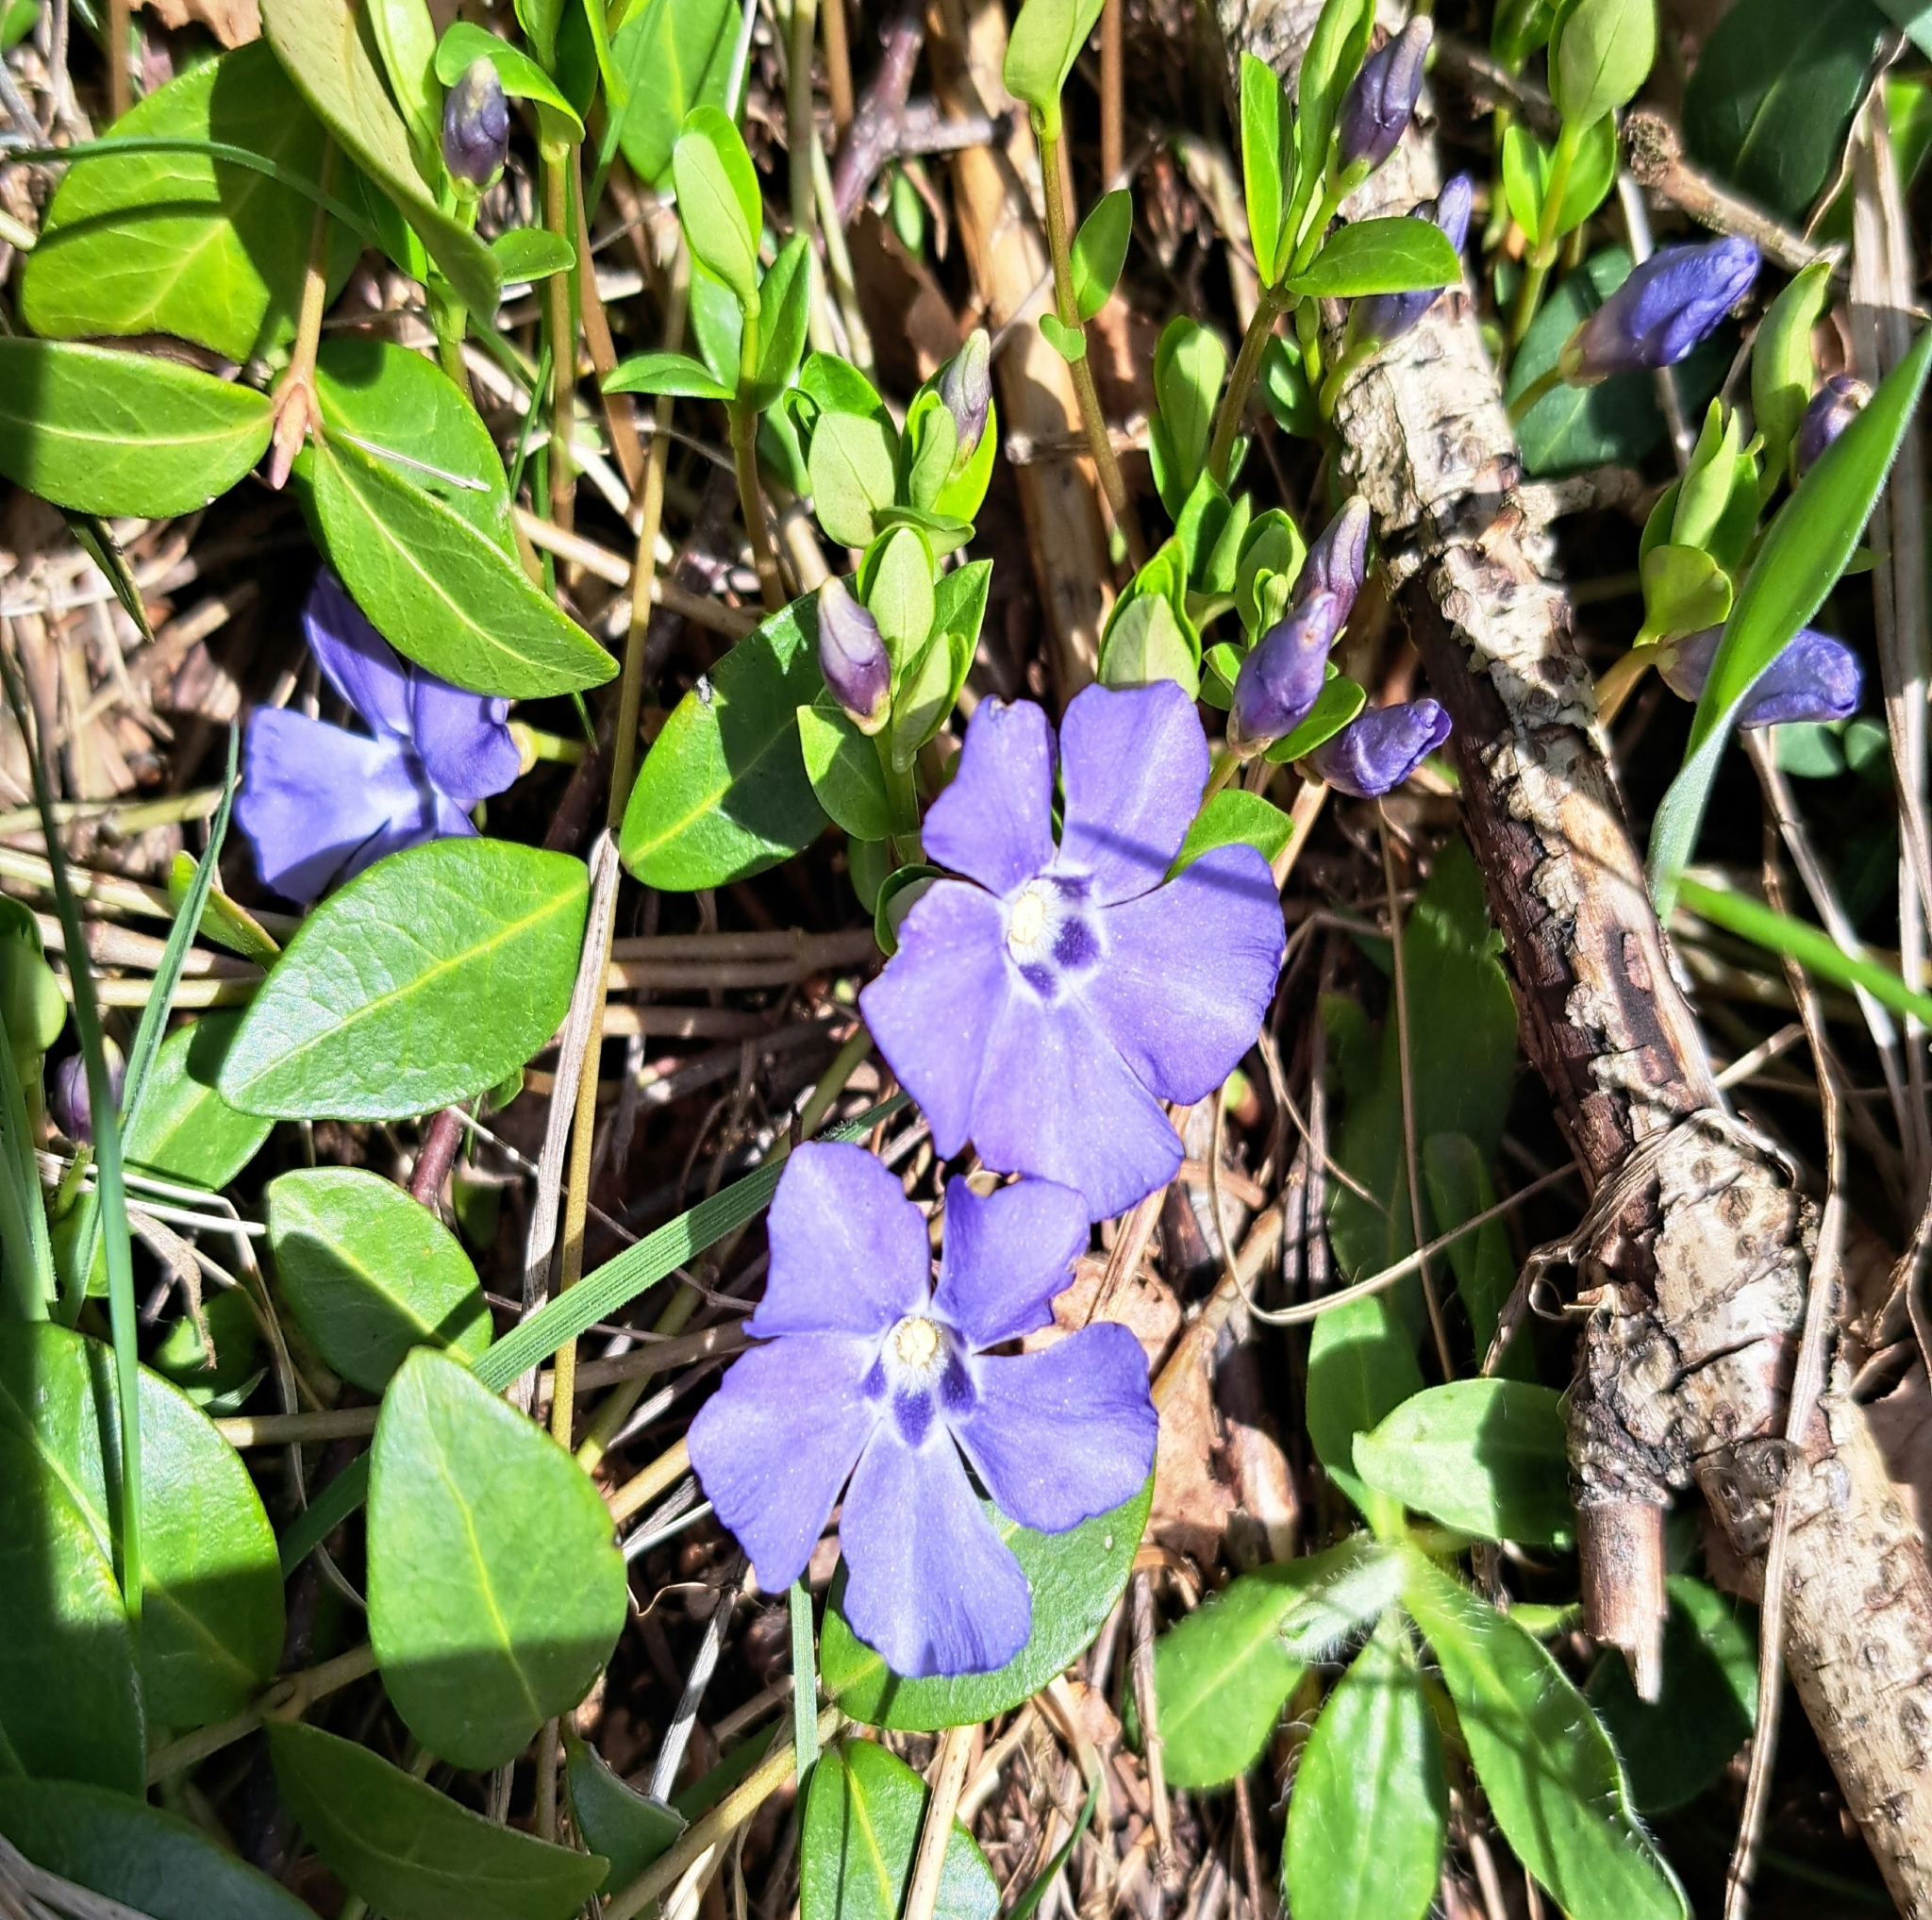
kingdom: Plantae
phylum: Tracheophyta
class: Magnoliopsida
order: Gentianales
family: Apocynaceae
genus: Vinca
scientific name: Vinca minor
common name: Lesser periwinkle
